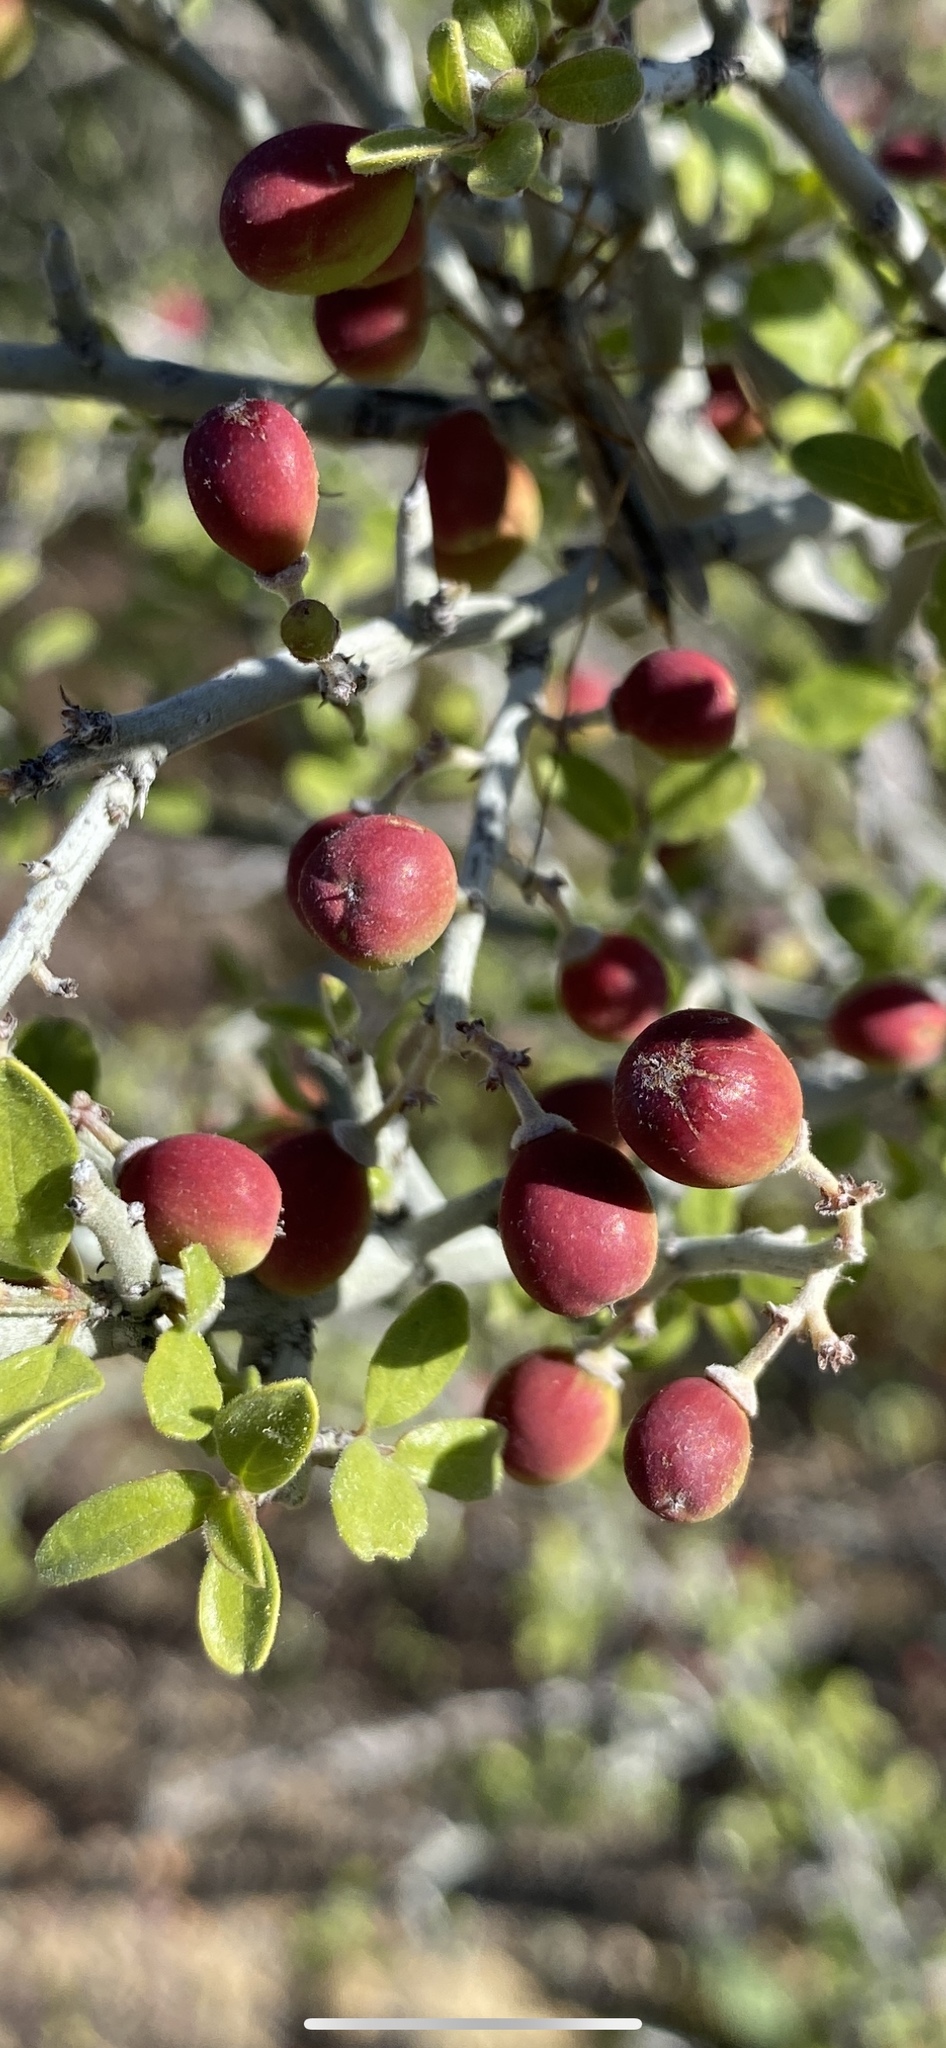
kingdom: Plantae
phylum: Tracheophyta
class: Magnoliopsida
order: Rosales
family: Rhamnaceae
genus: Sarcomphalus
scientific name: Sarcomphalus obtusifolius
